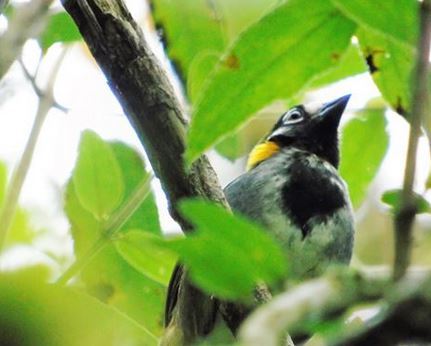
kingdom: Animalia
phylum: Chordata
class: Aves
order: Passeriformes
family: Passerellidae
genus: Melozone
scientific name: Melozone leucotis
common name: White-eared ground-sparrow
